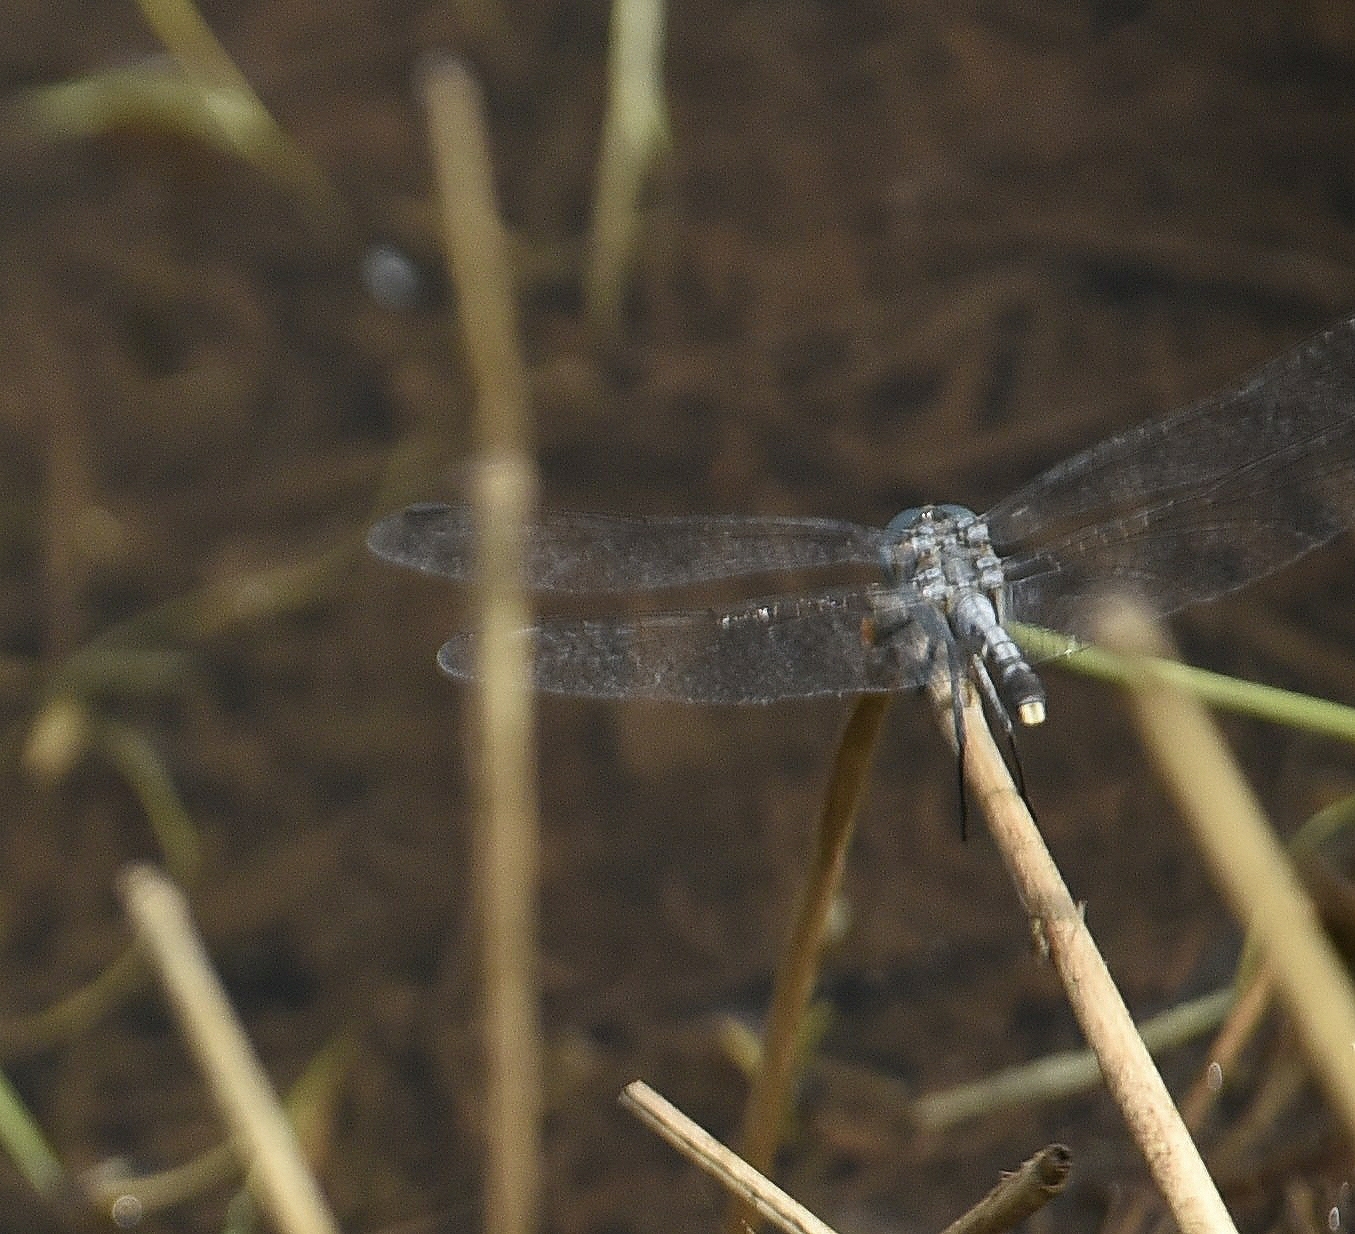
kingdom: Animalia
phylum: Arthropoda
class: Insecta
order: Odonata
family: Libellulidae
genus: Diplacodes
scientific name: Diplacodes trivialis
